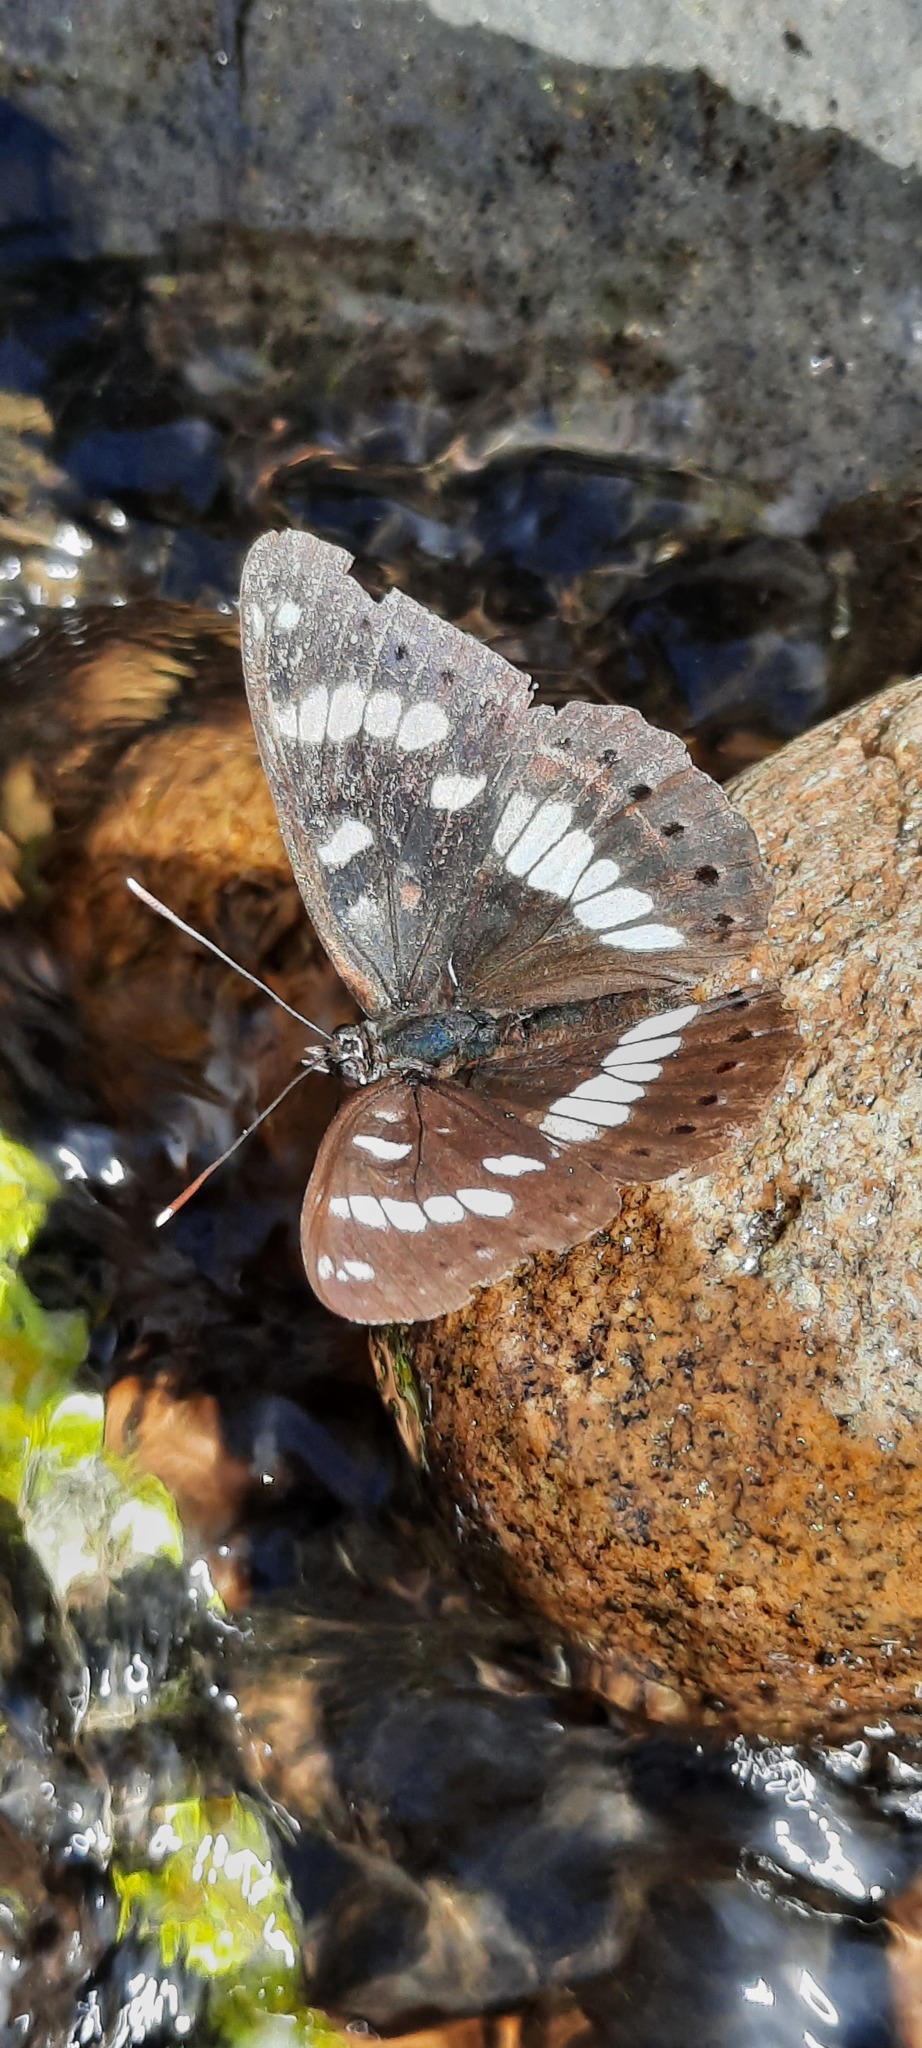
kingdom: Animalia
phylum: Arthropoda
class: Insecta
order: Lepidoptera
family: Nymphalidae
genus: Limenitis
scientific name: Limenitis reducta
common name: Southern white admiral
